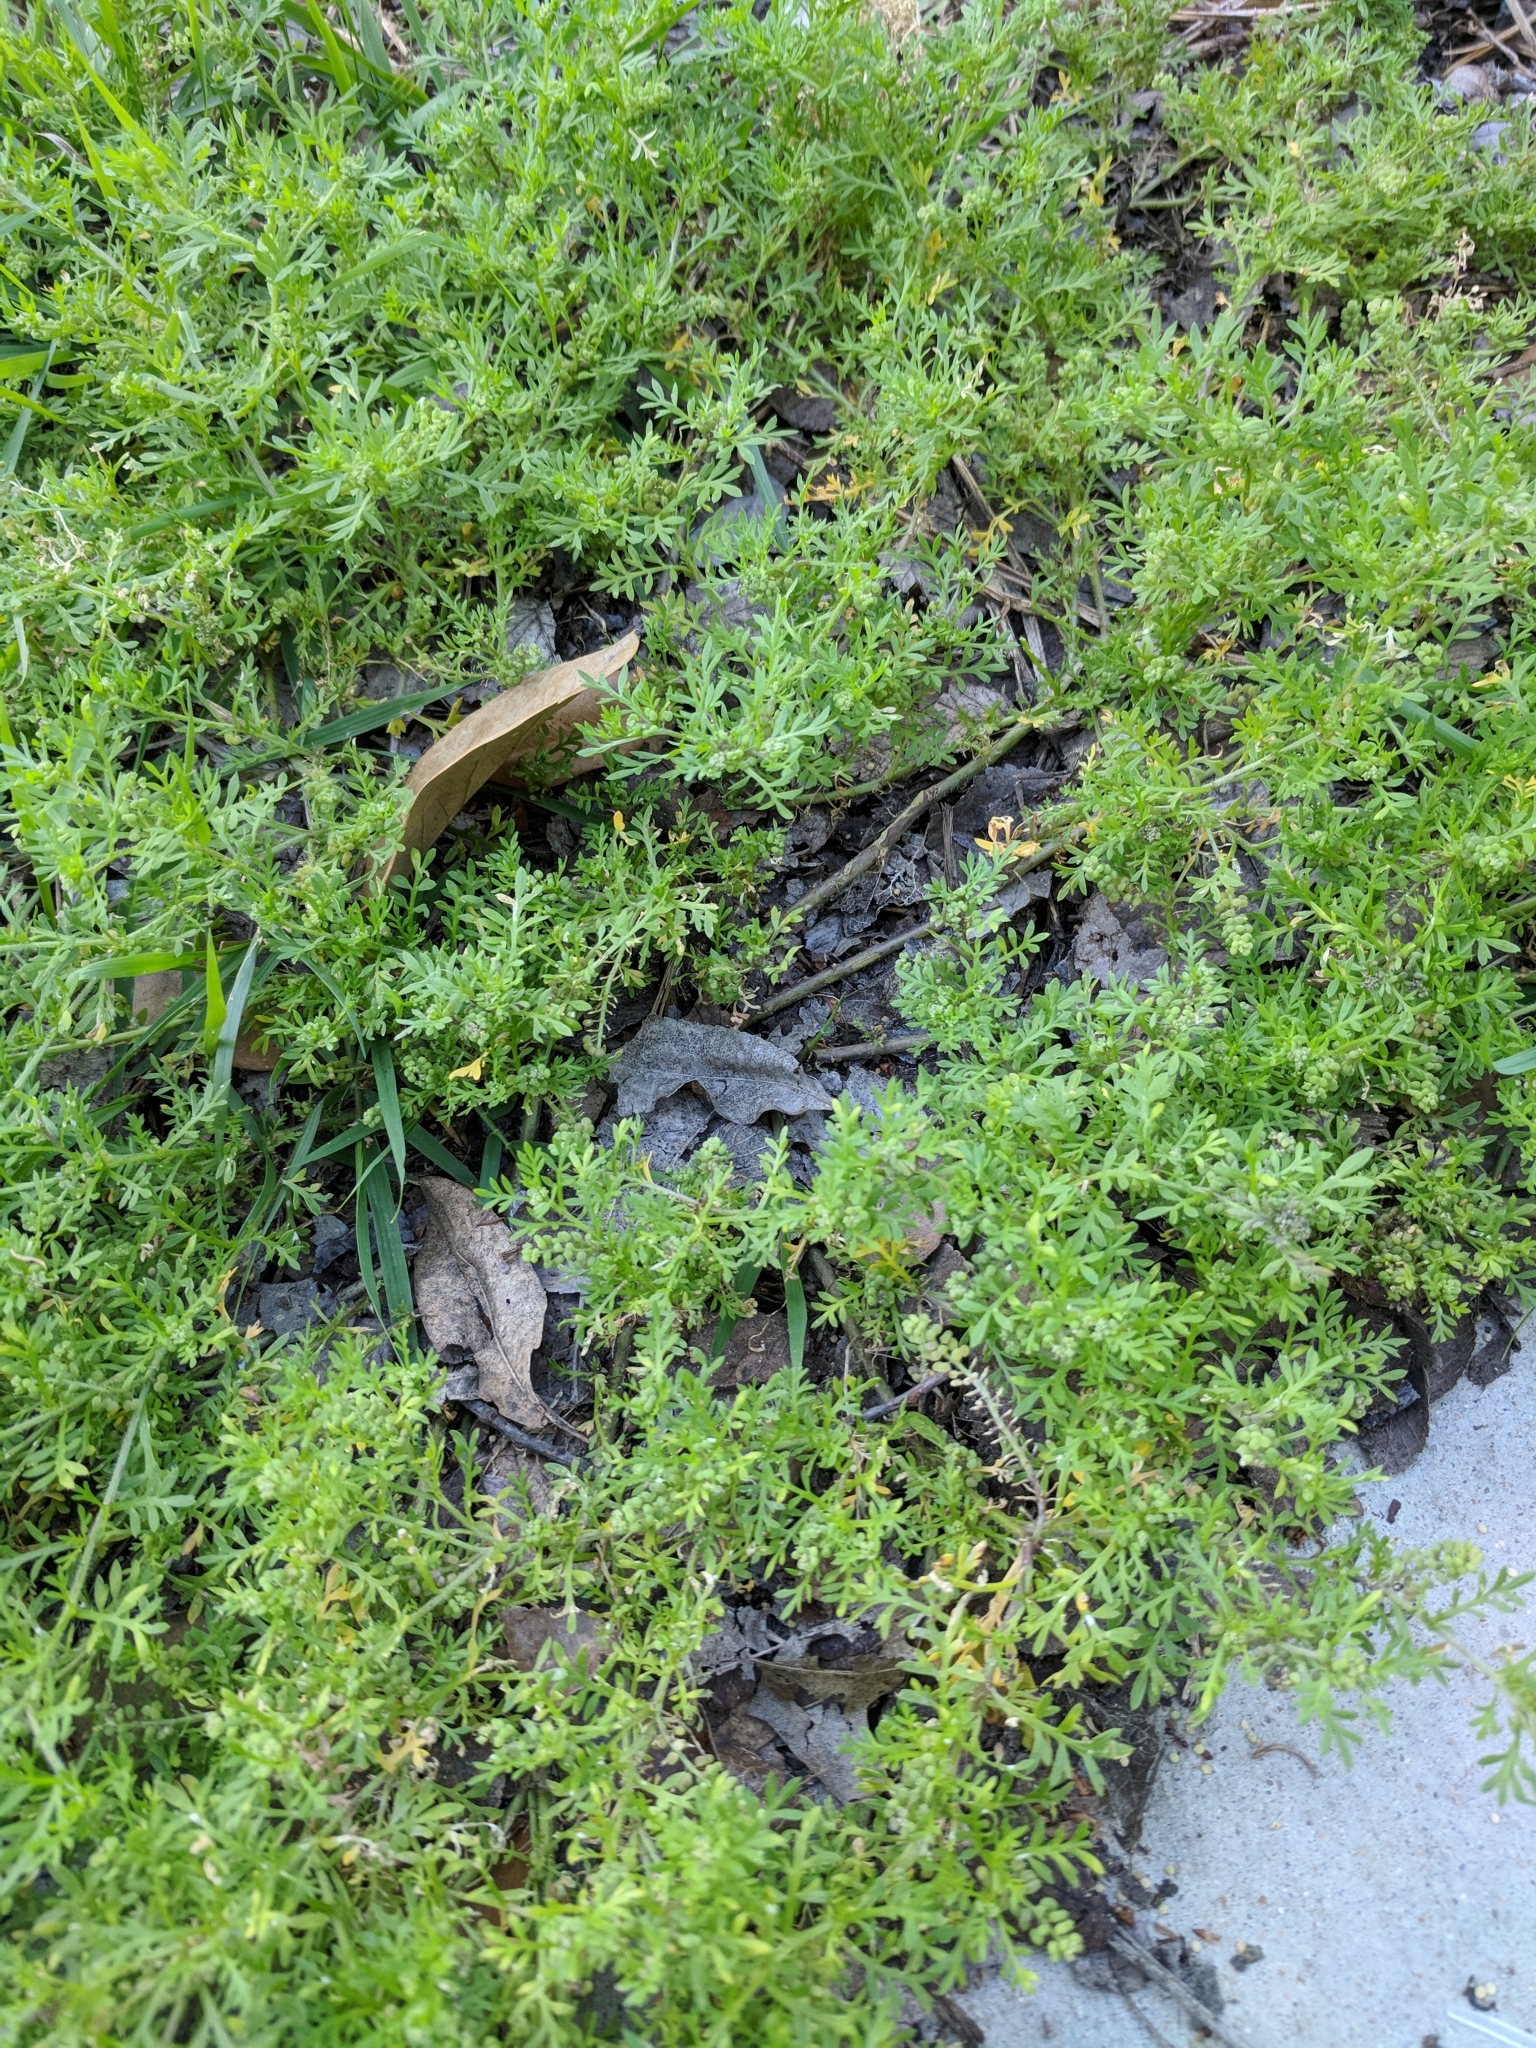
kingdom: Plantae
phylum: Tracheophyta
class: Magnoliopsida
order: Brassicales
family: Brassicaceae
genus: Lepidium
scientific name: Lepidium didymum
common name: Lesser swinecress
